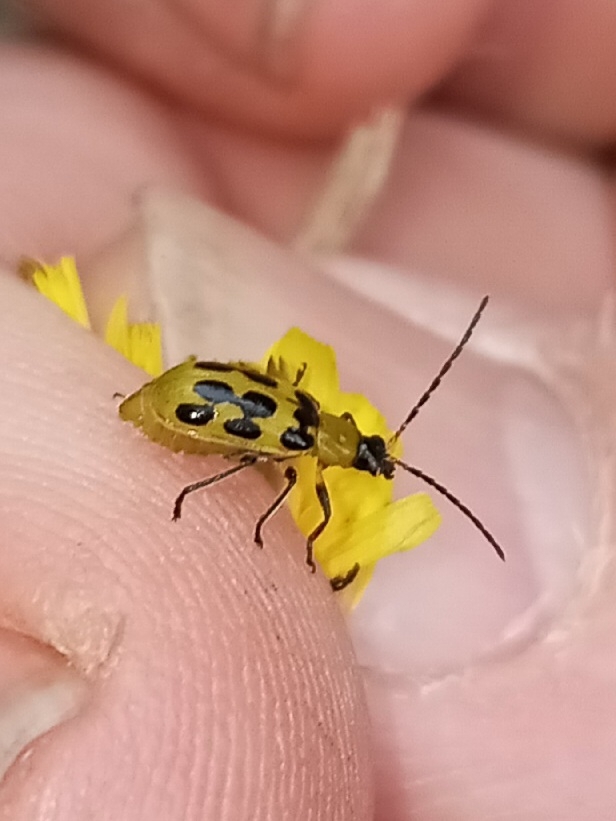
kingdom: Animalia
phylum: Arthropoda
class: Insecta
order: Coleoptera
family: Chrysomelidae
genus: Diabrotica
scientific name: Diabrotica undecimpunctata
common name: Spotted cucumber beetle
